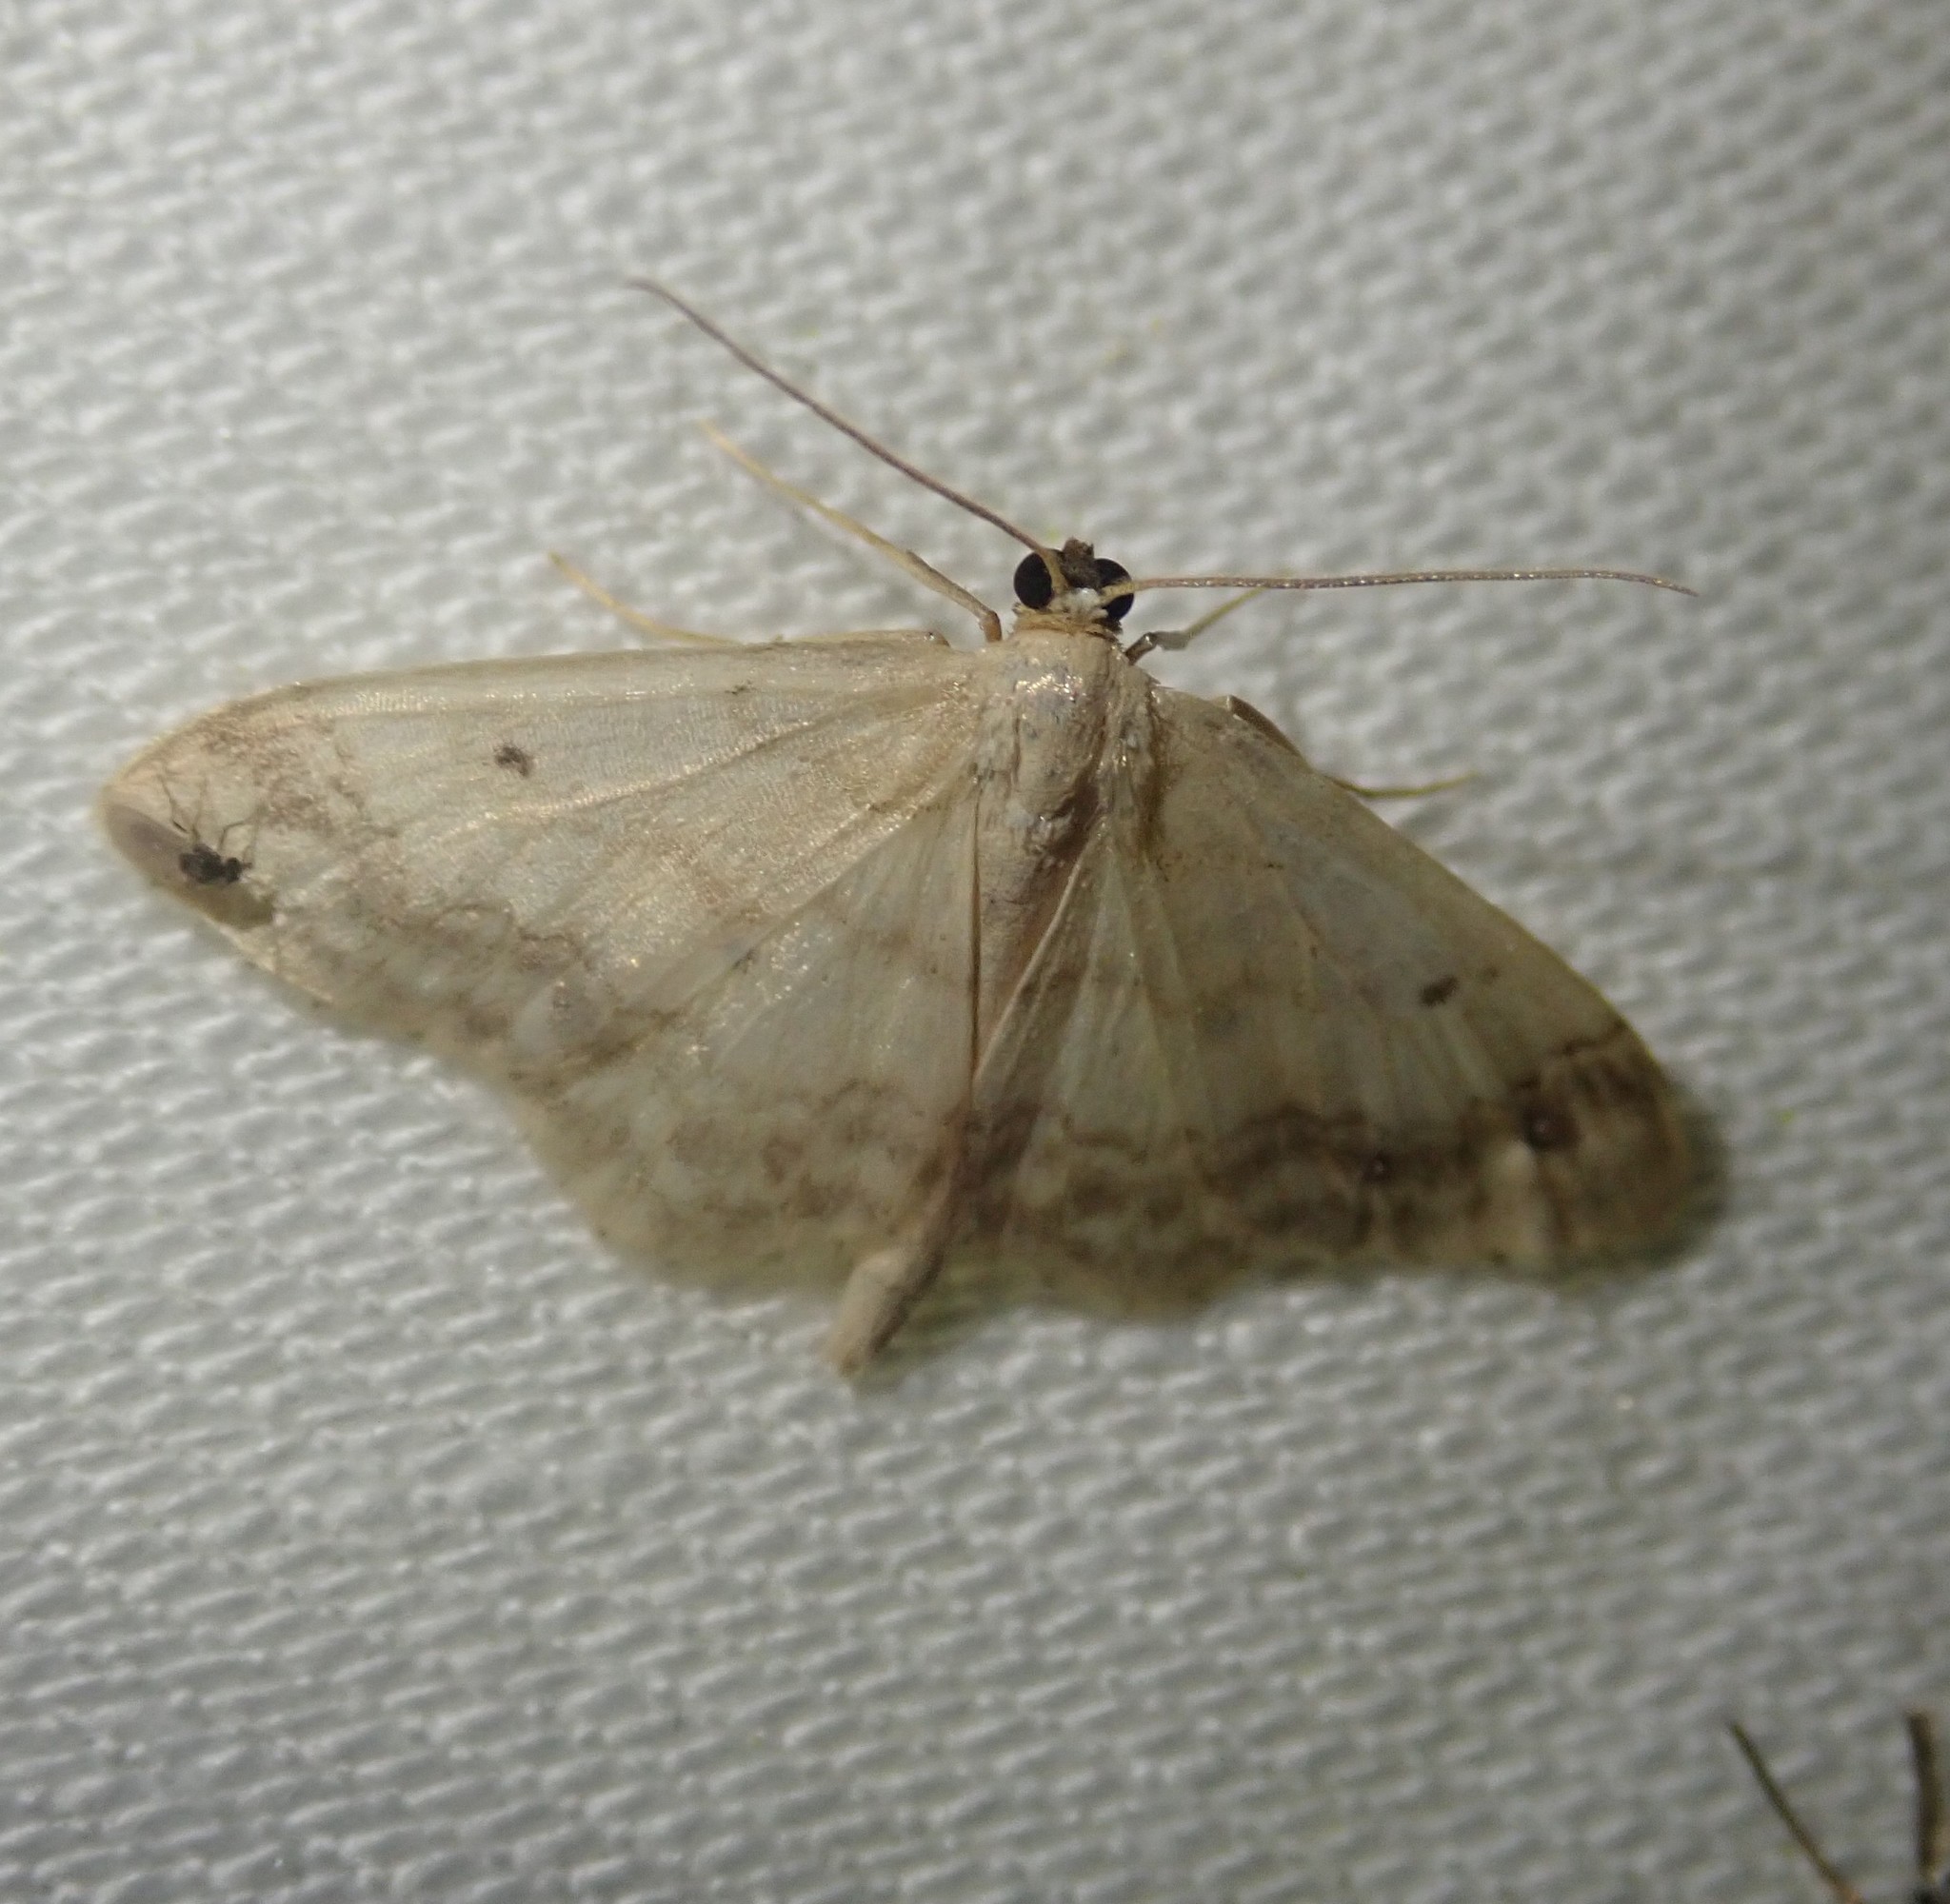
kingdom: Animalia
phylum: Arthropoda
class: Insecta
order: Lepidoptera
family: Geometridae
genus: Idaea
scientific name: Idaea biselata
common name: Small fan-footed wave
